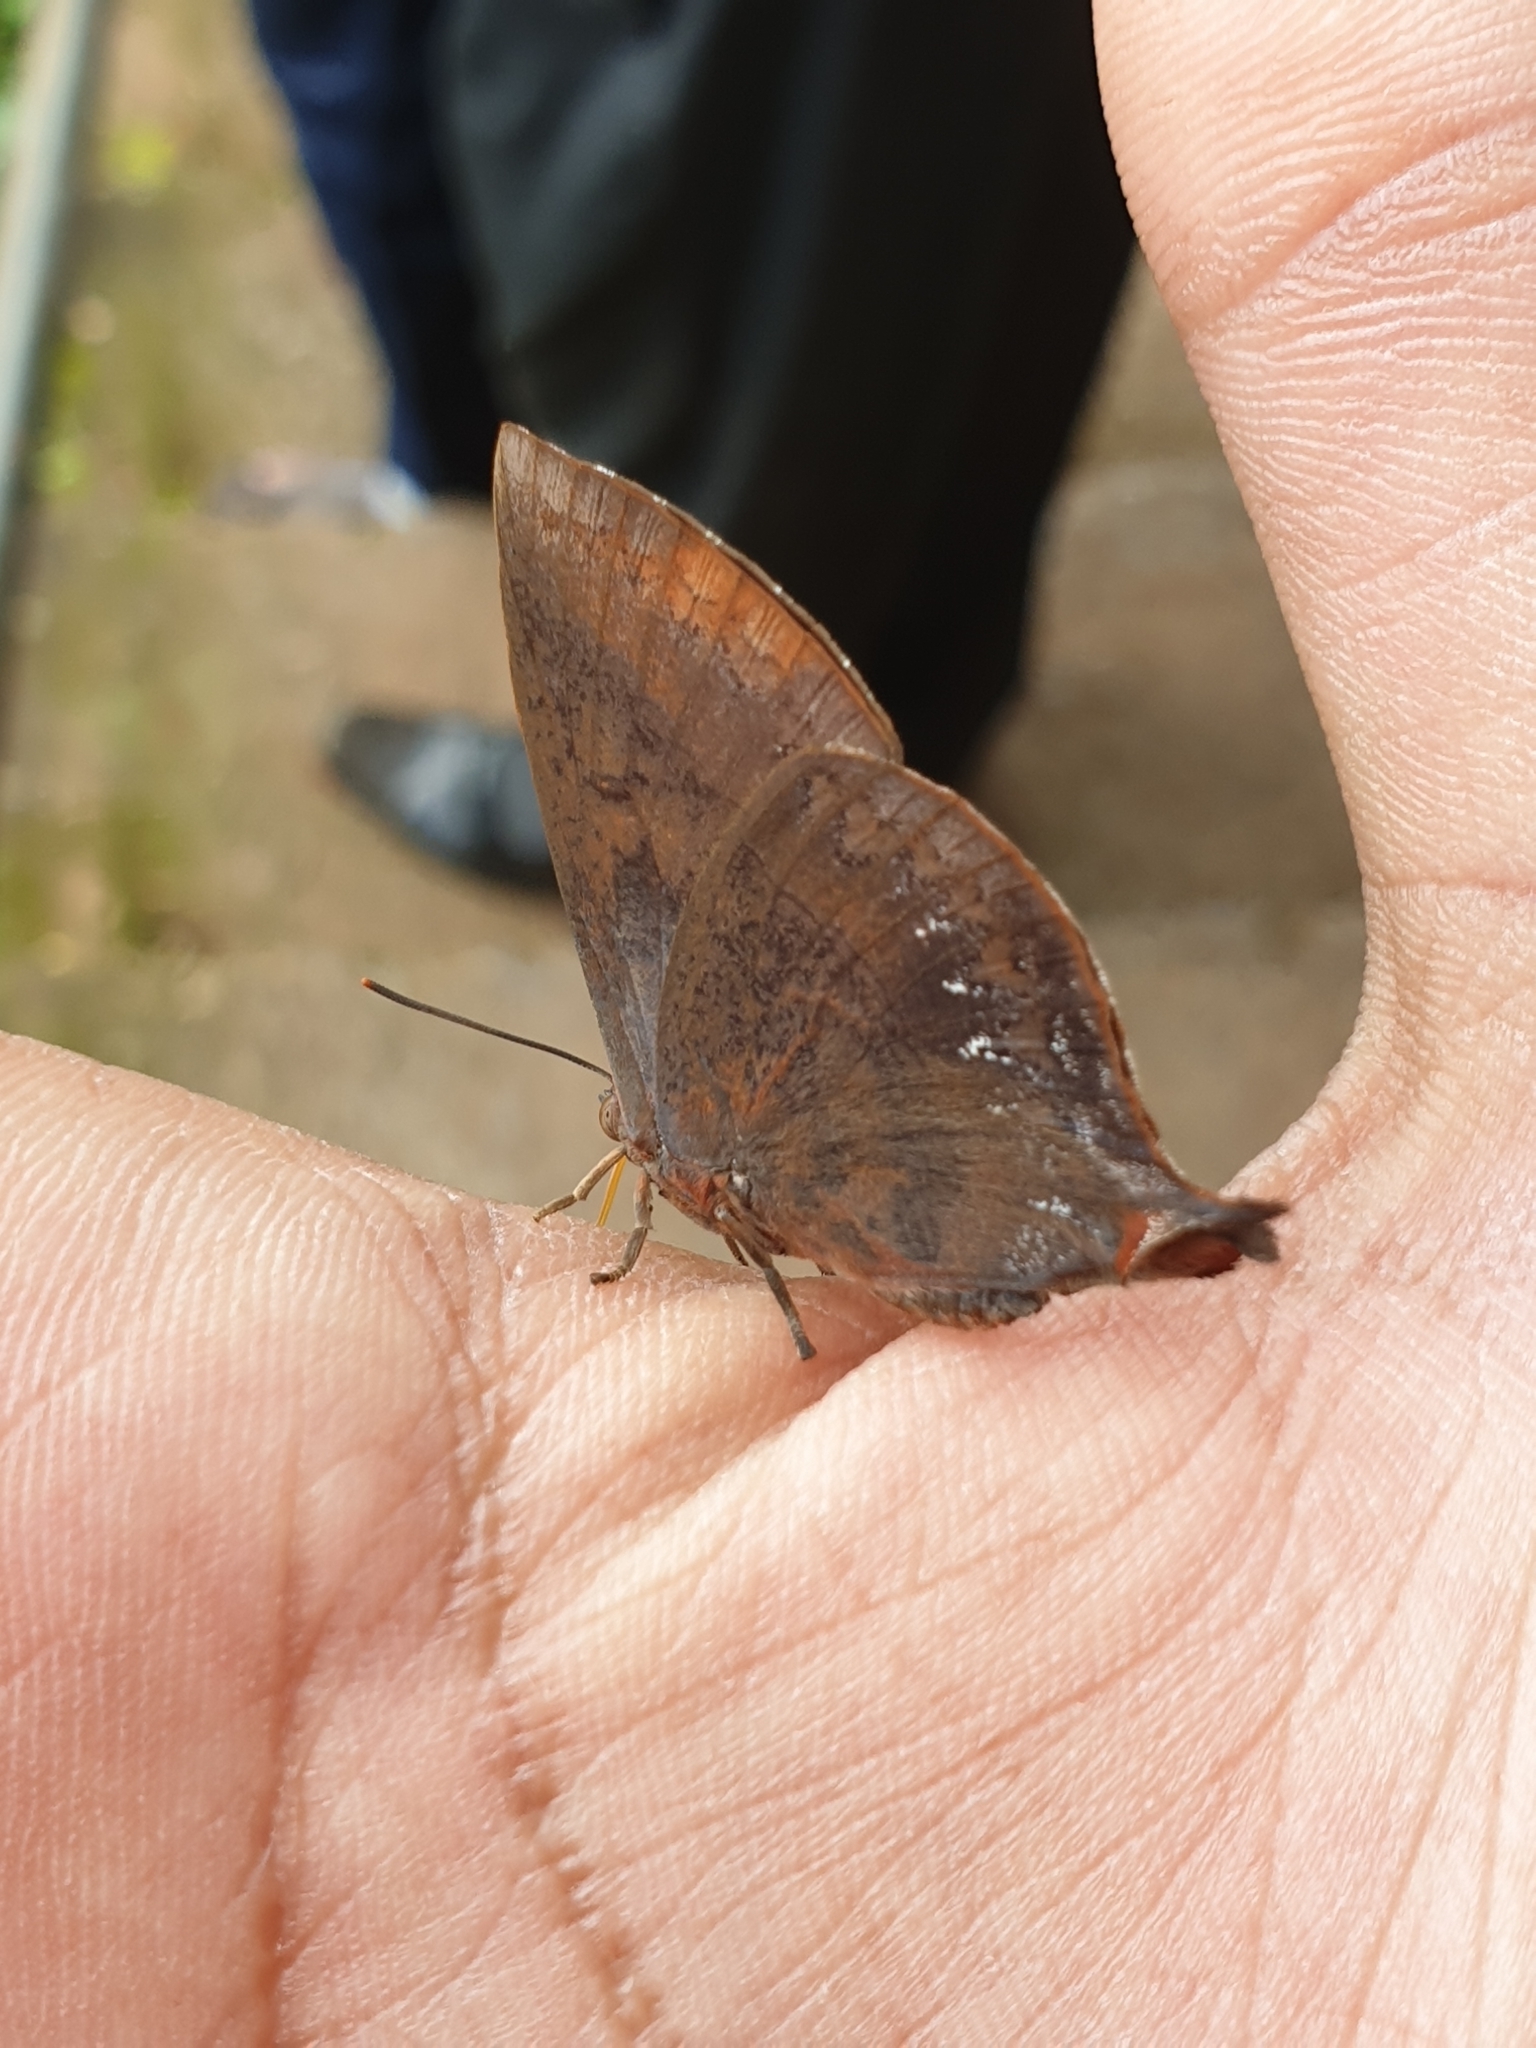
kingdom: Animalia
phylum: Arthropoda
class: Insecta
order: Lepidoptera
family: Lycaenidae
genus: Amblypodia
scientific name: Amblypodia anita
